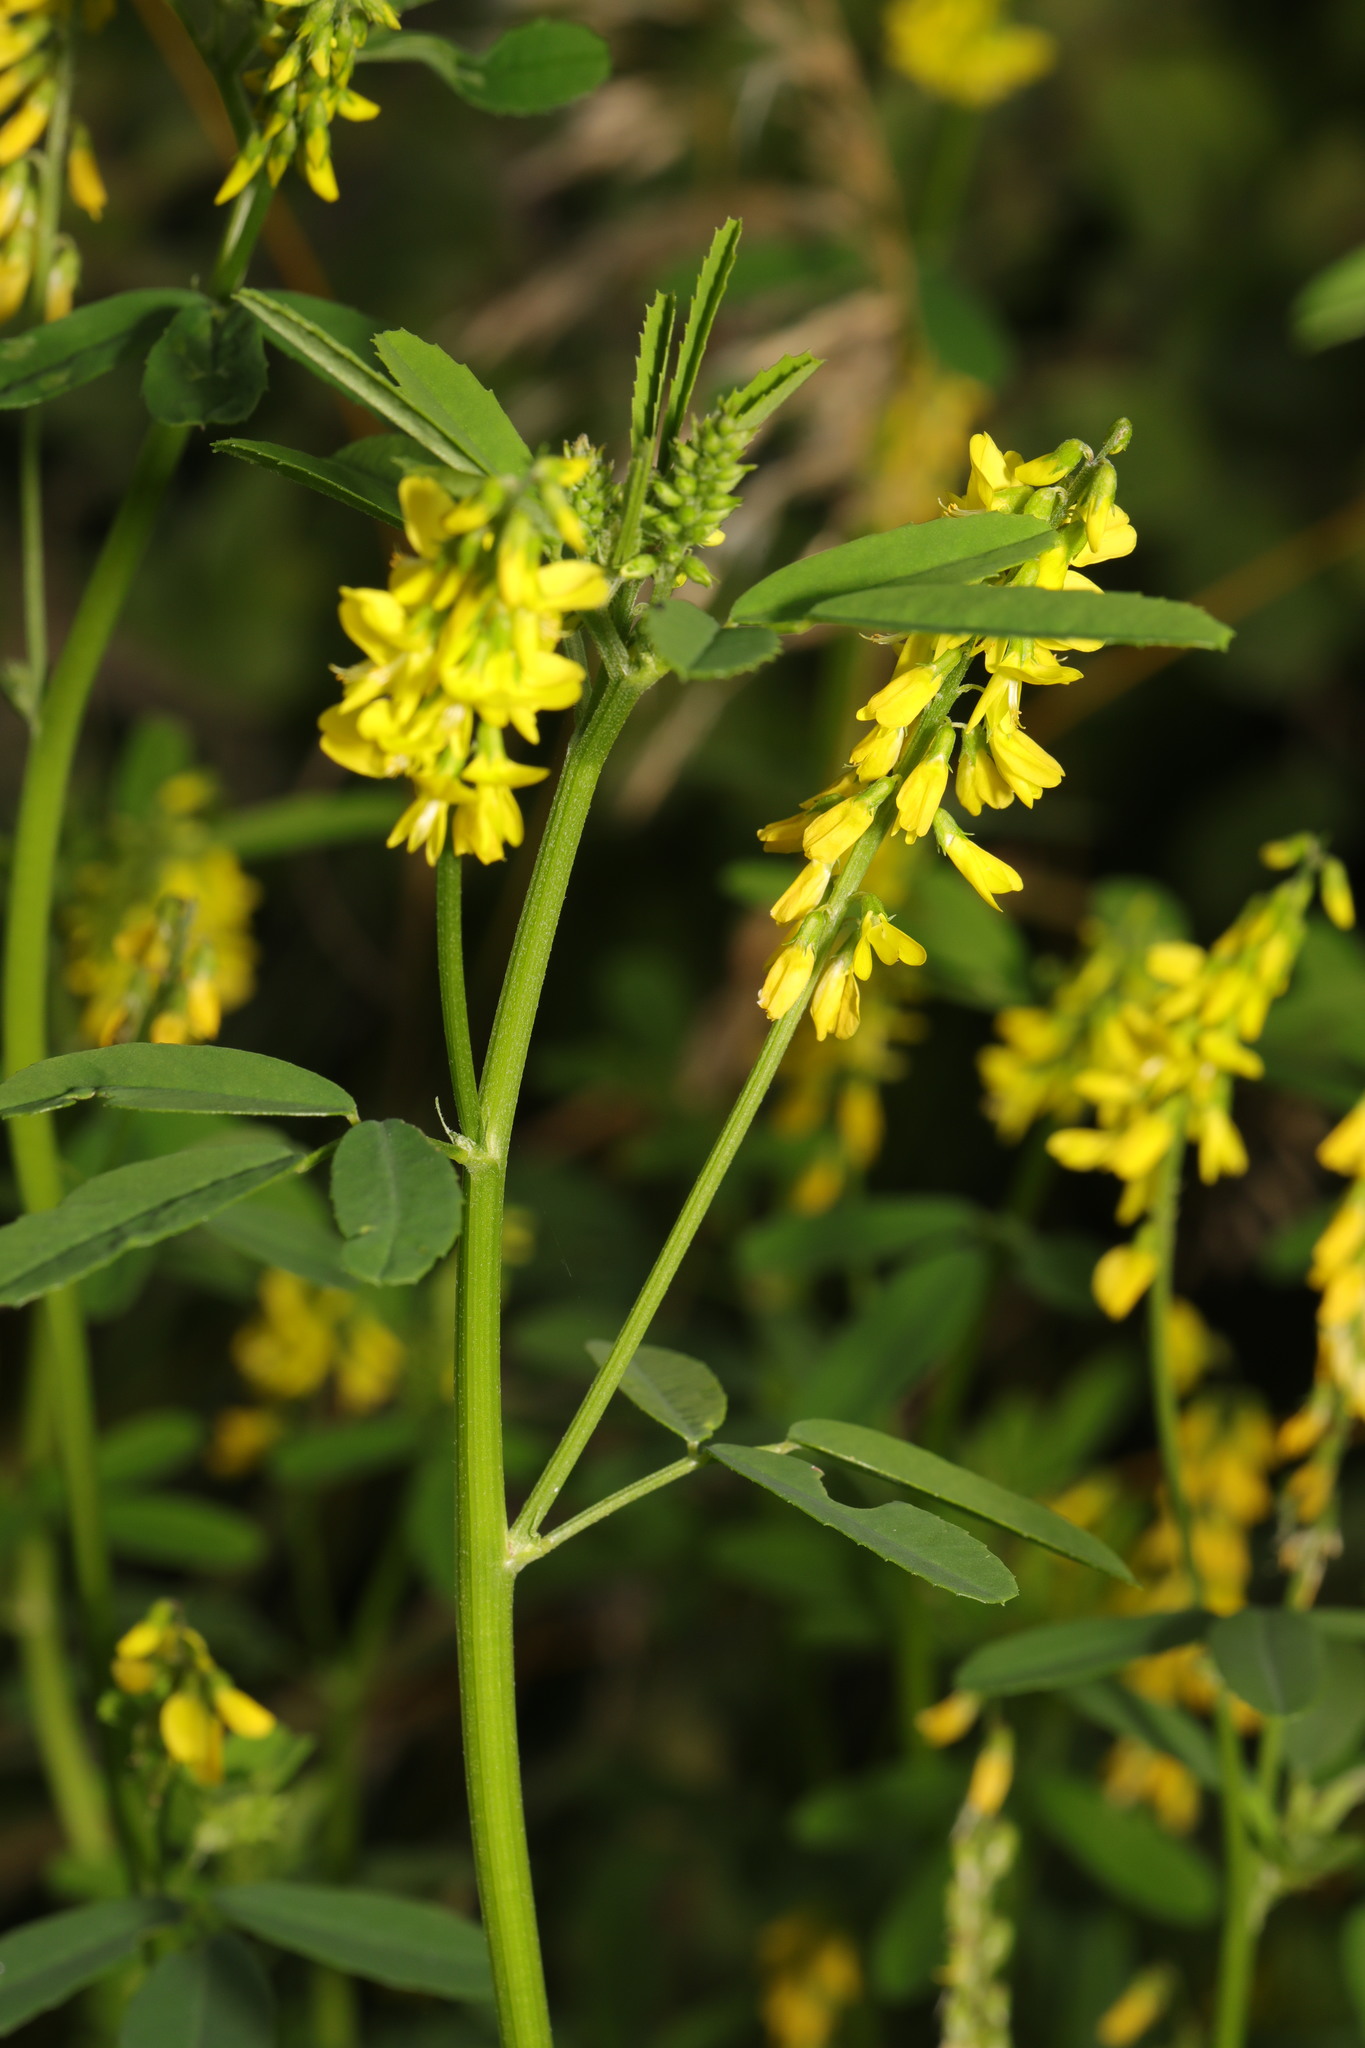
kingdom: Plantae
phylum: Tracheophyta
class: Magnoliopsida
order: Fabales
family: Fabaceae
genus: Melilotus
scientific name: Melilotus officinalis
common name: Sweetclover
